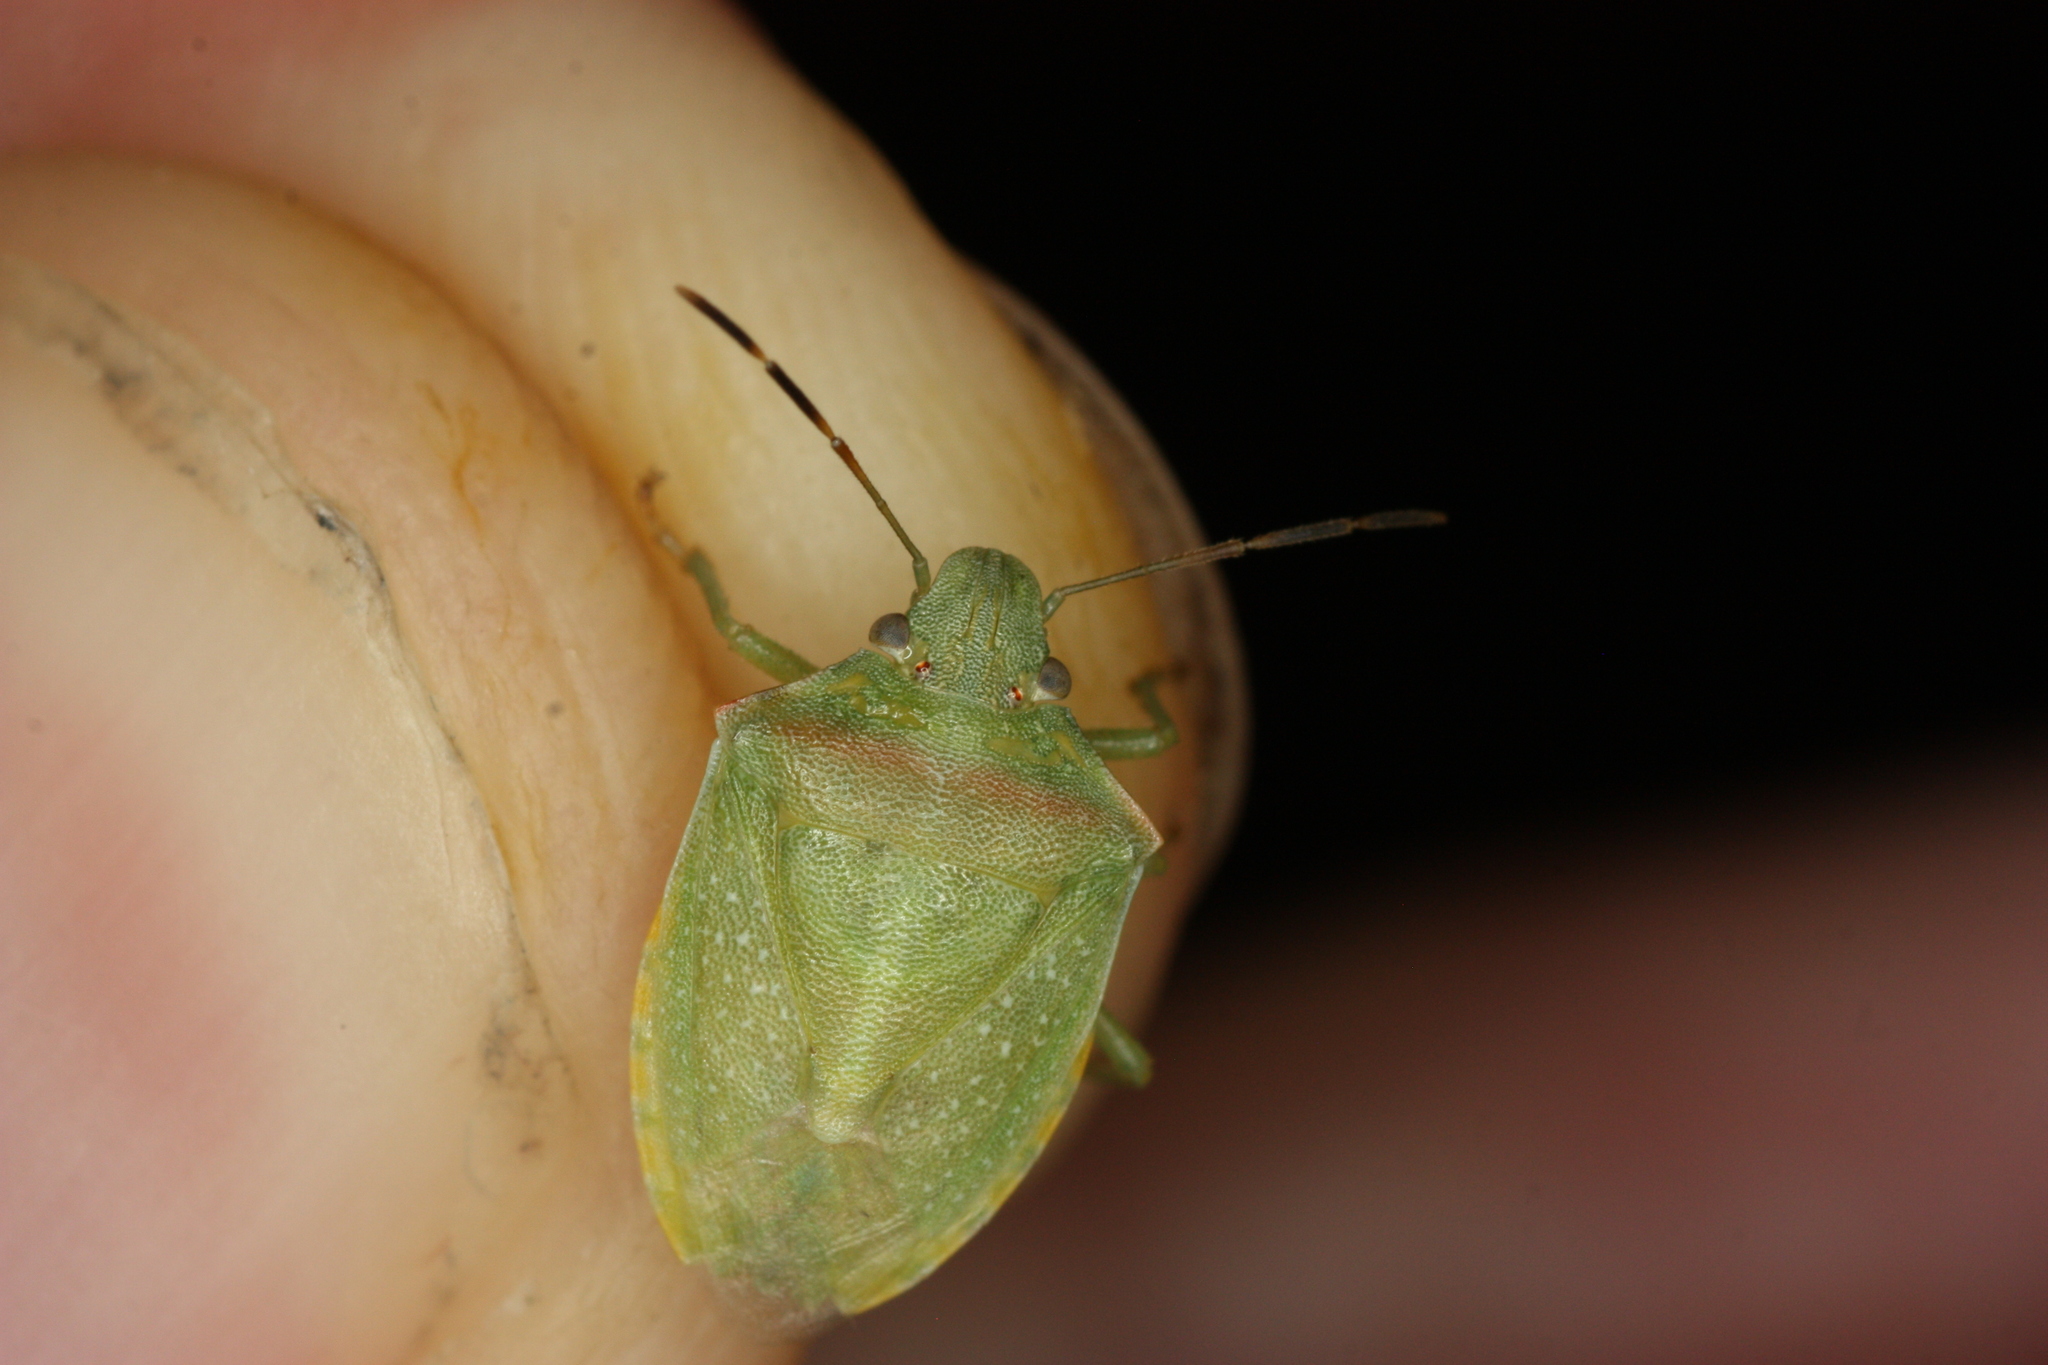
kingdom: Animalia
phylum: Arthropoda
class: Insecta
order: Hemiptera
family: Pentatomidae
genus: Thyanta
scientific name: Thyanta accerra
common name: Stink bug
